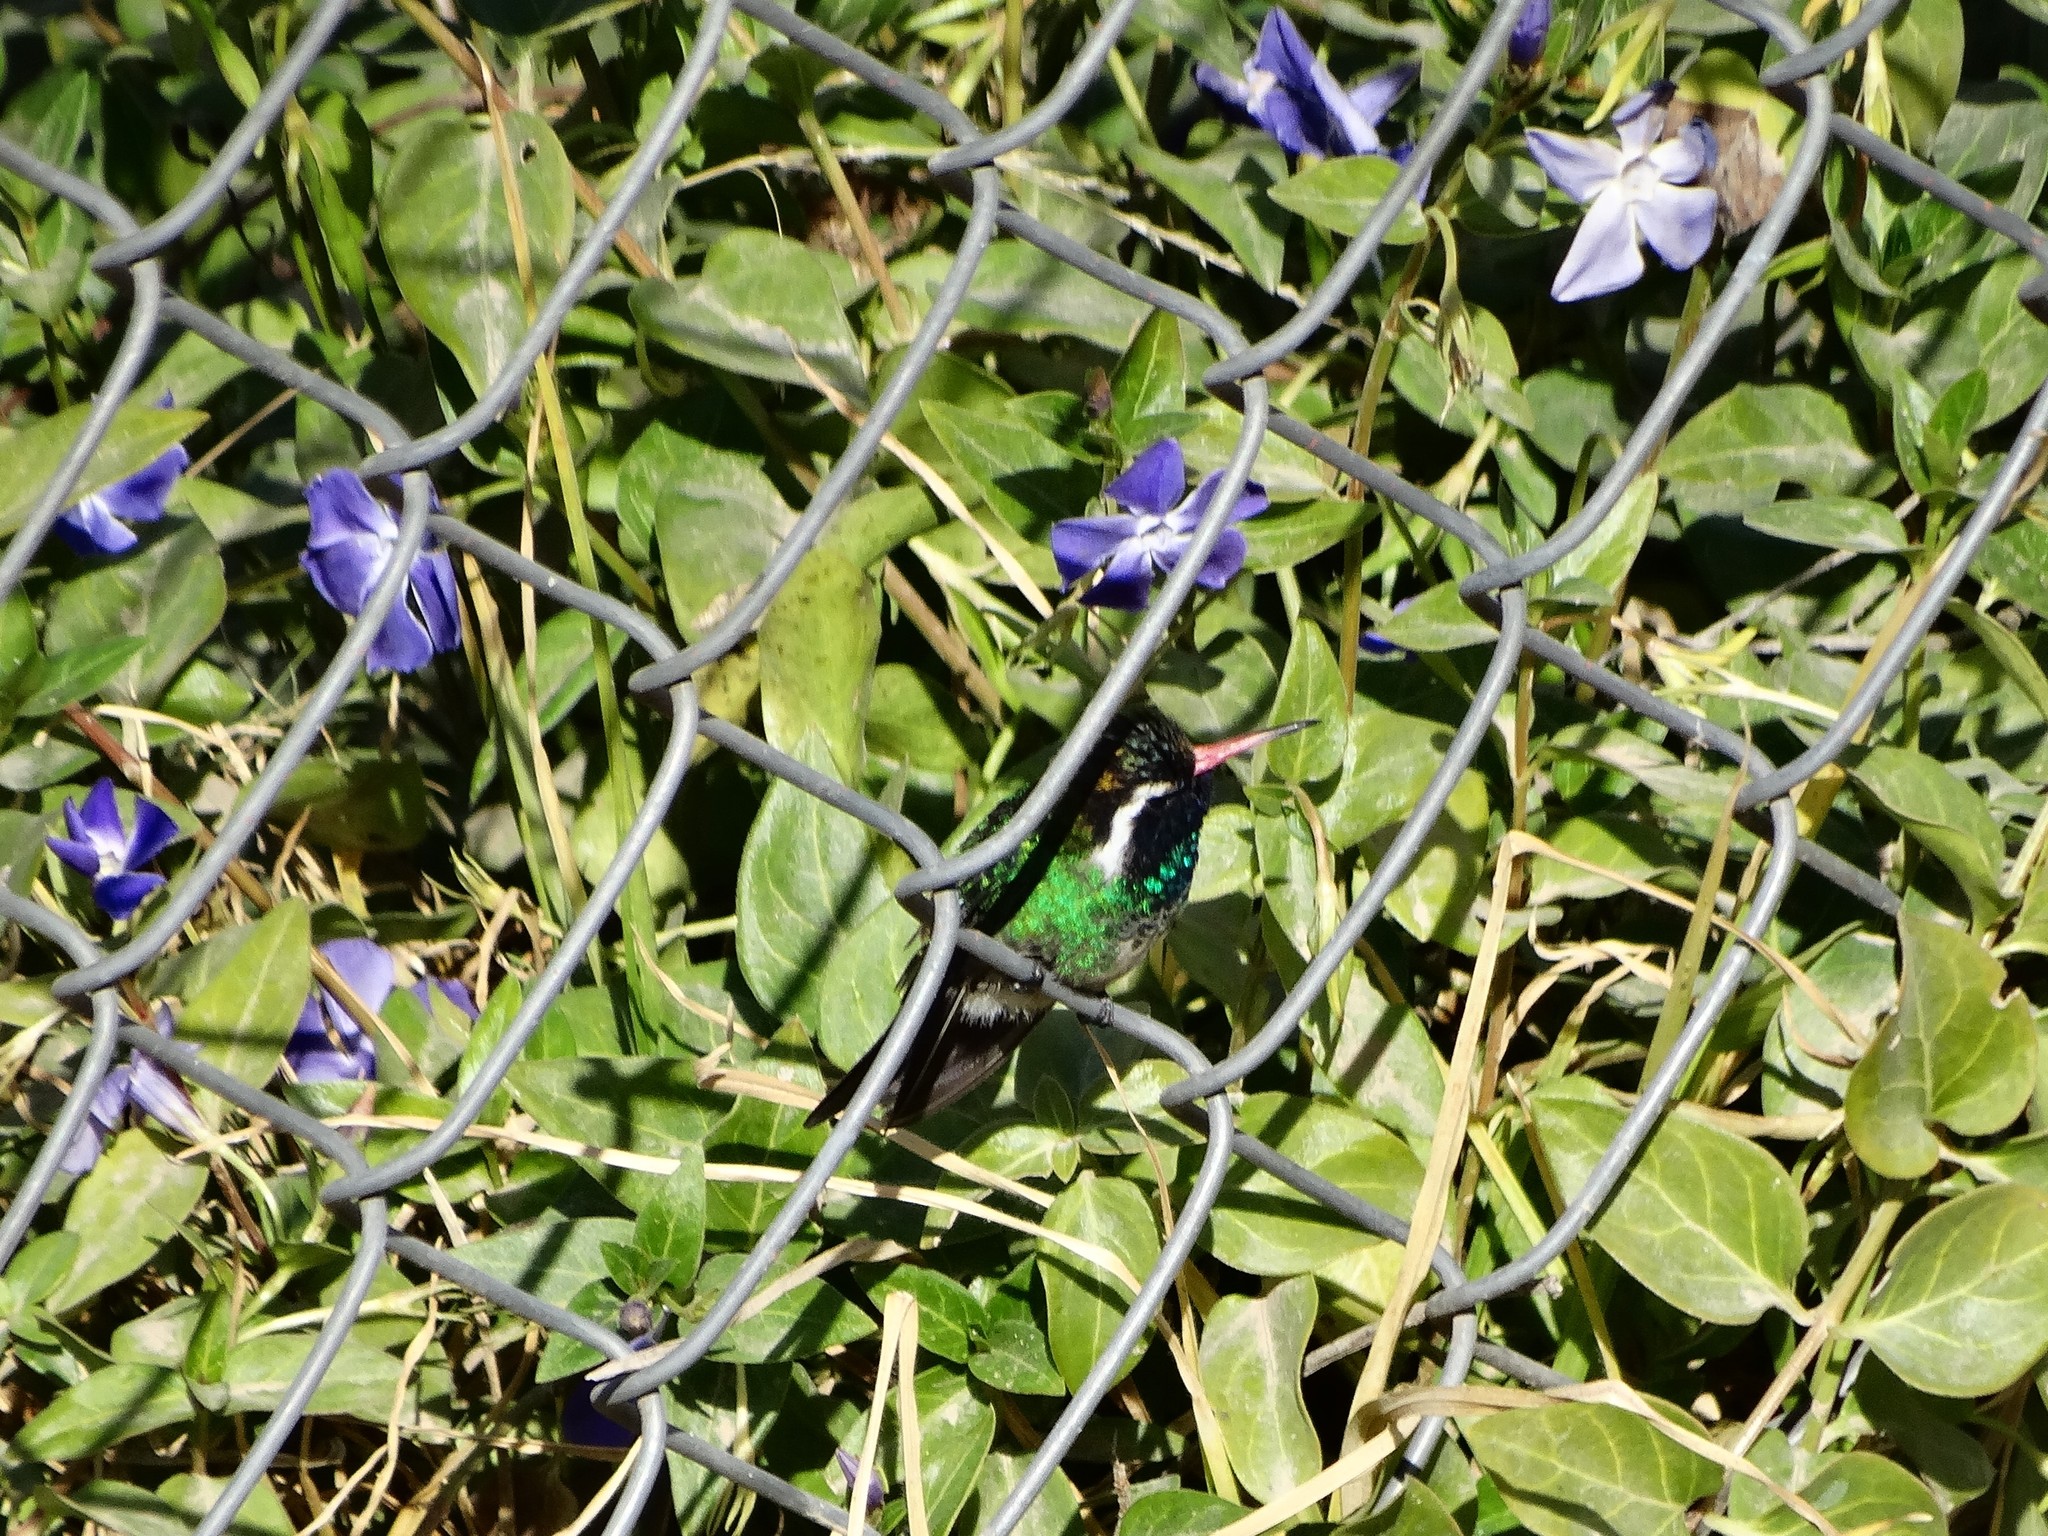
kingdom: Plantae
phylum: Tracheophyta
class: Magnoliopsida
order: Gentianales
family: Apocynaceae
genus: Vinca
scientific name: Vinca major
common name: Greater periwinkle
